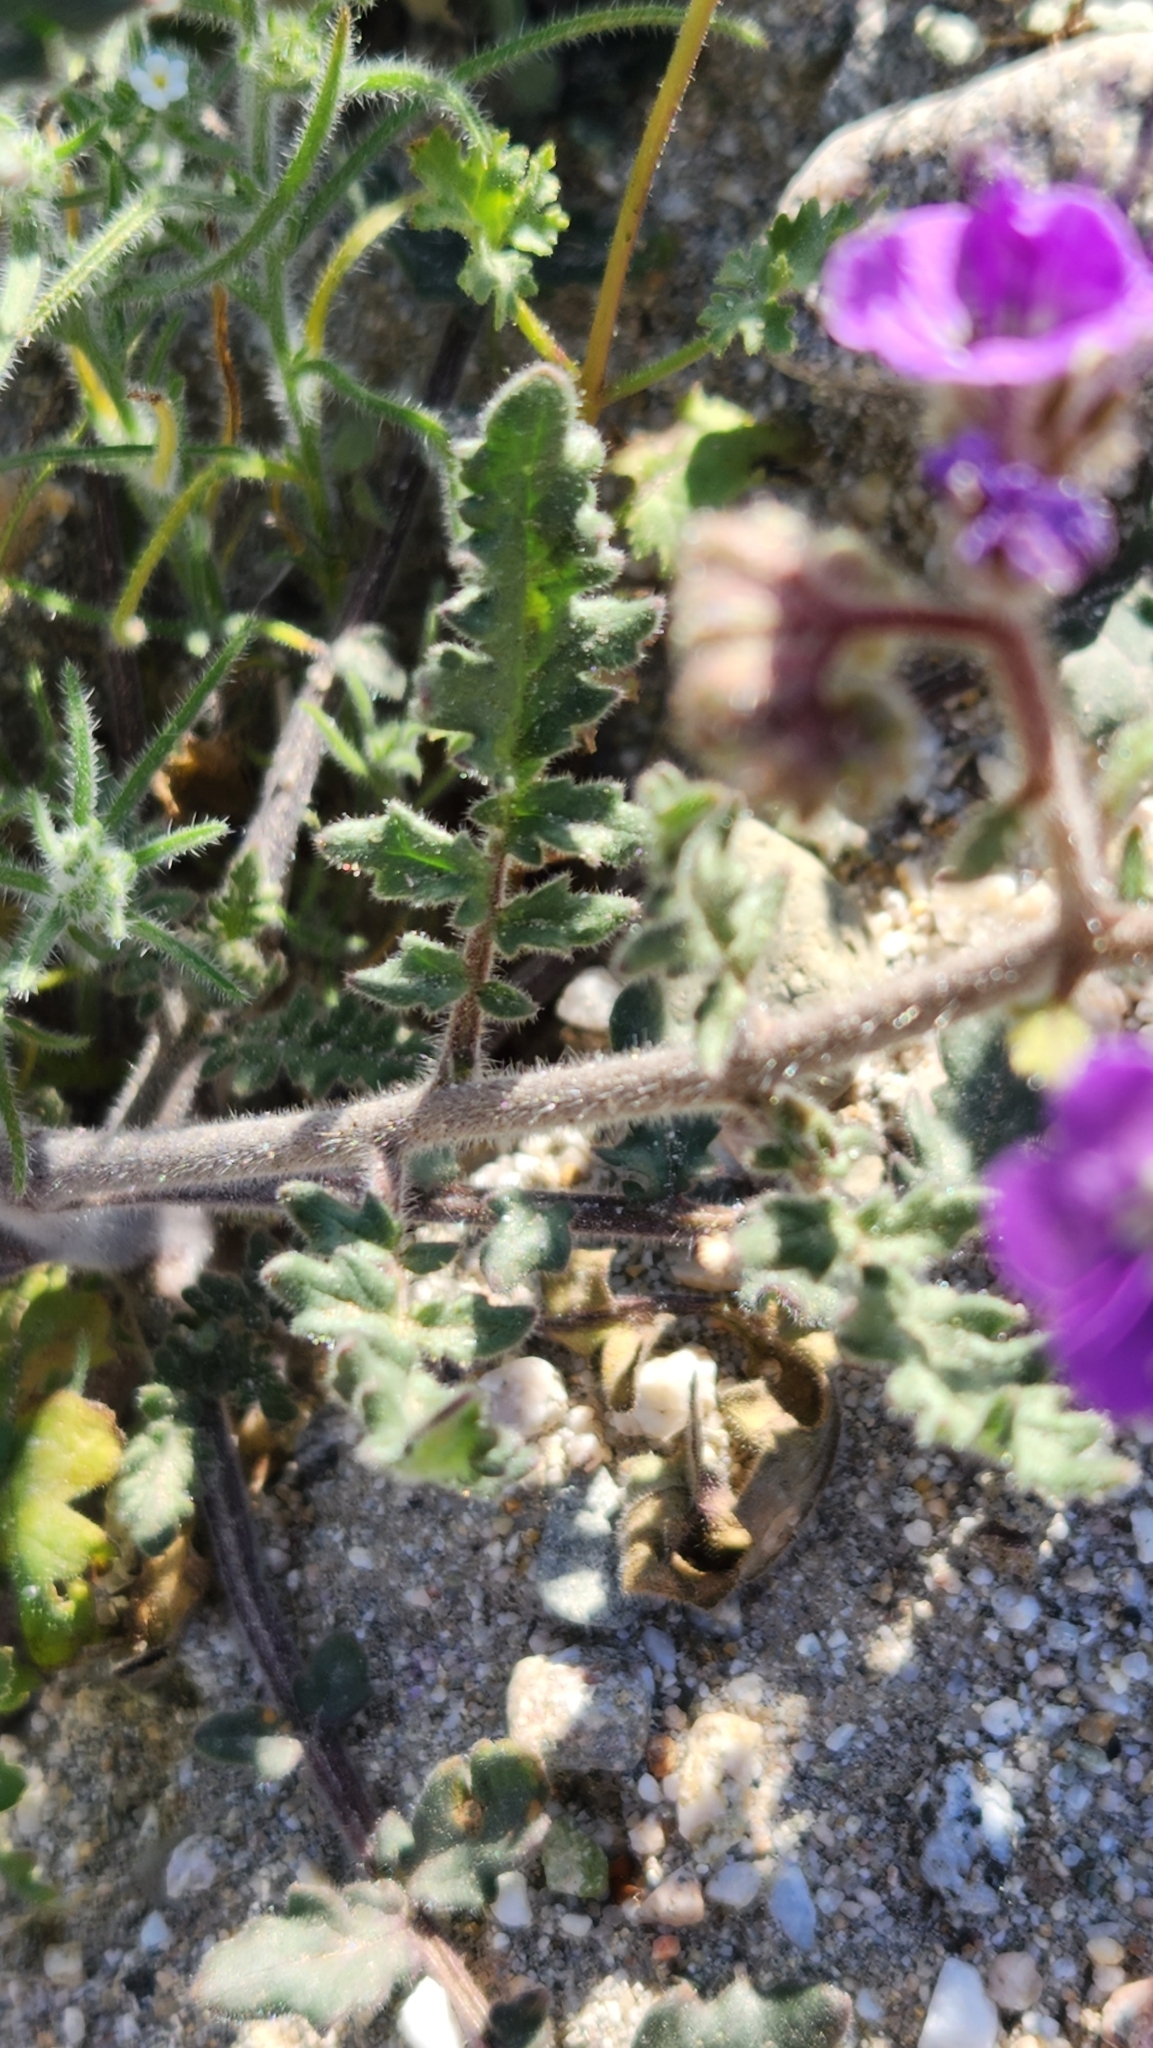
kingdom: Plantae
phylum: Tracheophyta
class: Magnoliopsida
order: Boraginales
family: Hydrophyllaceae
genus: Phacelia
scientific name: Phacelia crenulata
